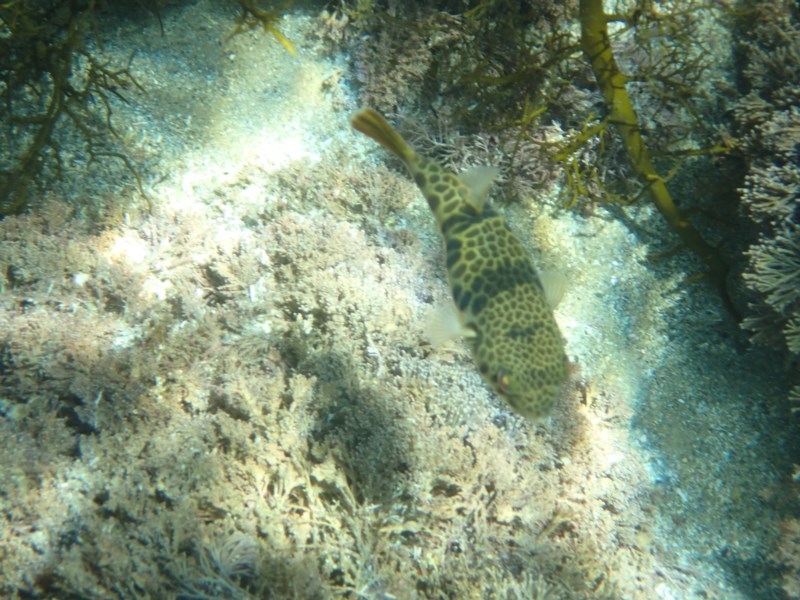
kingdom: Animalia
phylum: Chordata
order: Tetraodontiformes
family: Tetraodontidae
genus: Tetractenos
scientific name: Tetractenos glaber
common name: Smooth toadfish
